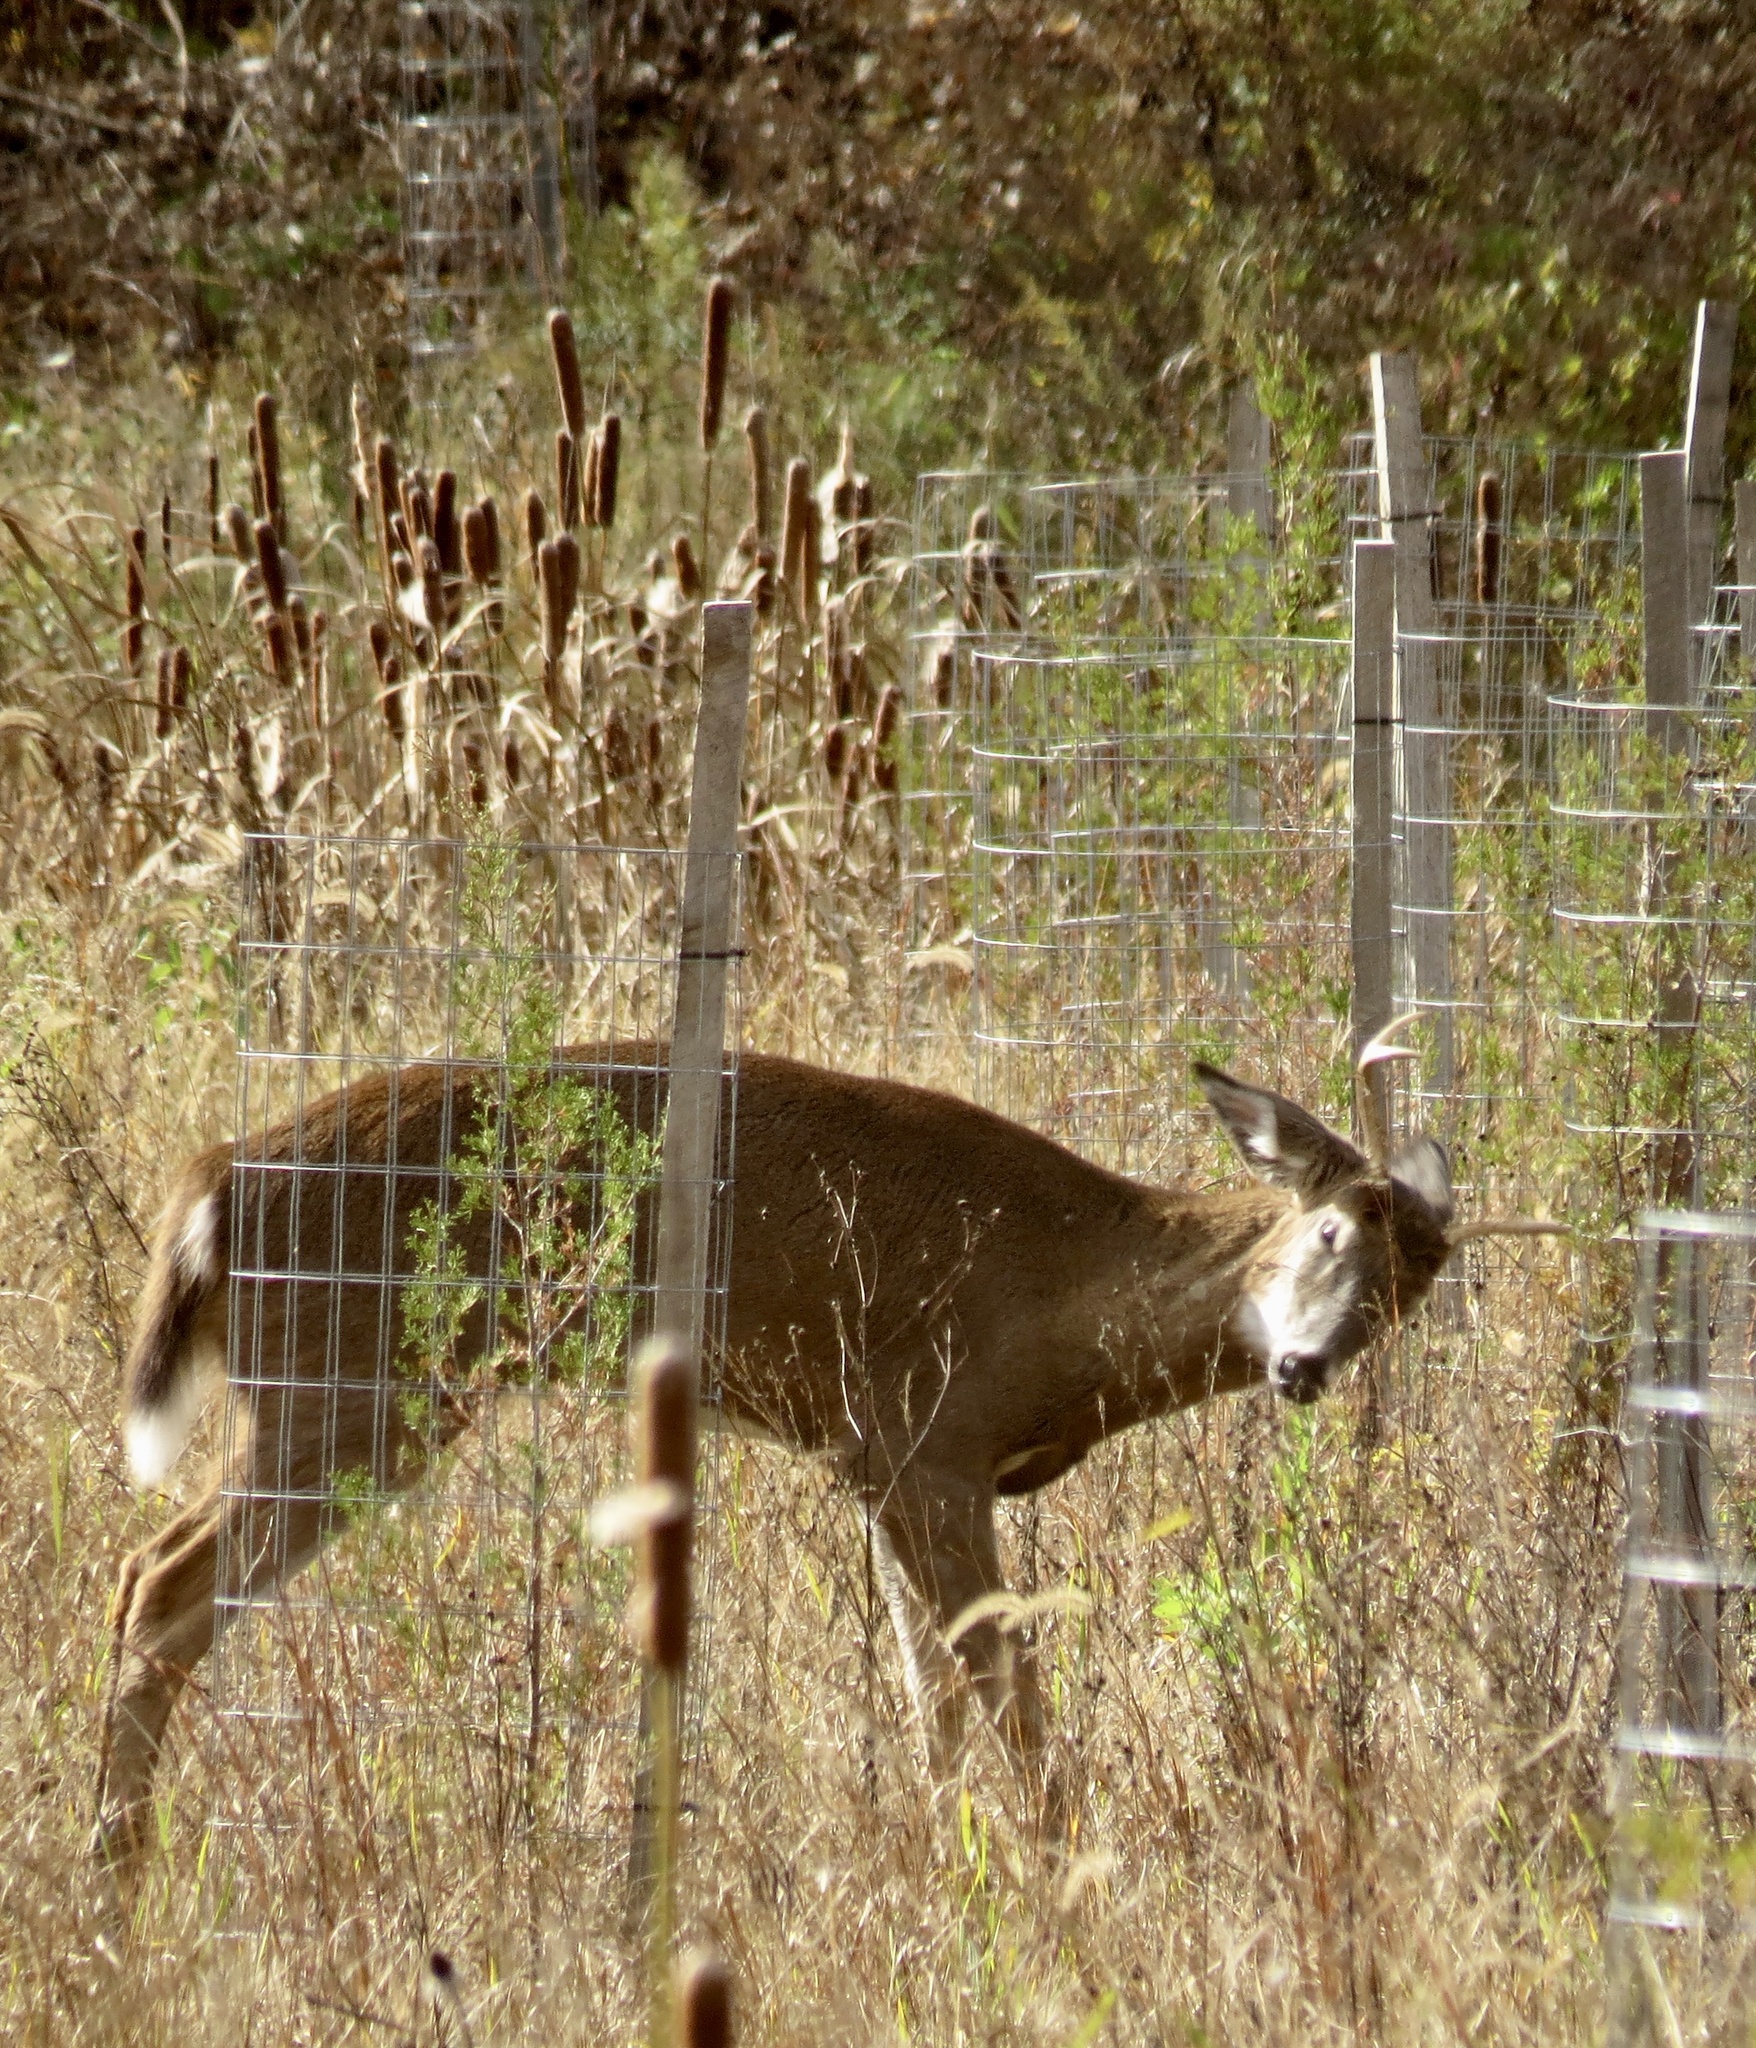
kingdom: Animalia
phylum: Chordata
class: Mammalia
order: Artiodactyla
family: Cervidae
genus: Odocoileus
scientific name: Odocoileus virginianus
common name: White-tailed deer
